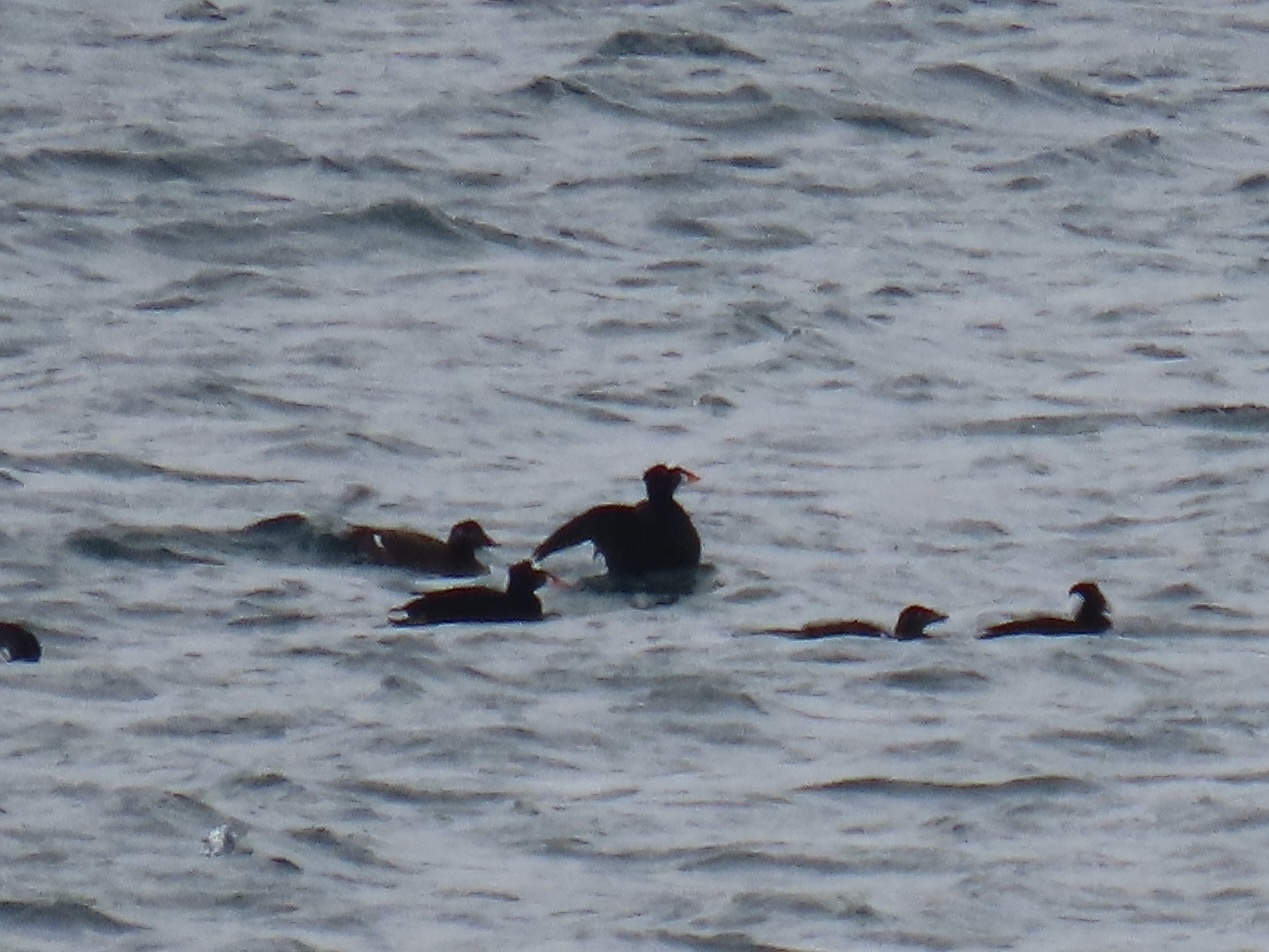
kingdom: Animalia
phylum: Chordata
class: Aves
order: Anseriformes
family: Anatidae
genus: Melanitta
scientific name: Melanitta perspicillata
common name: Surf scoter
